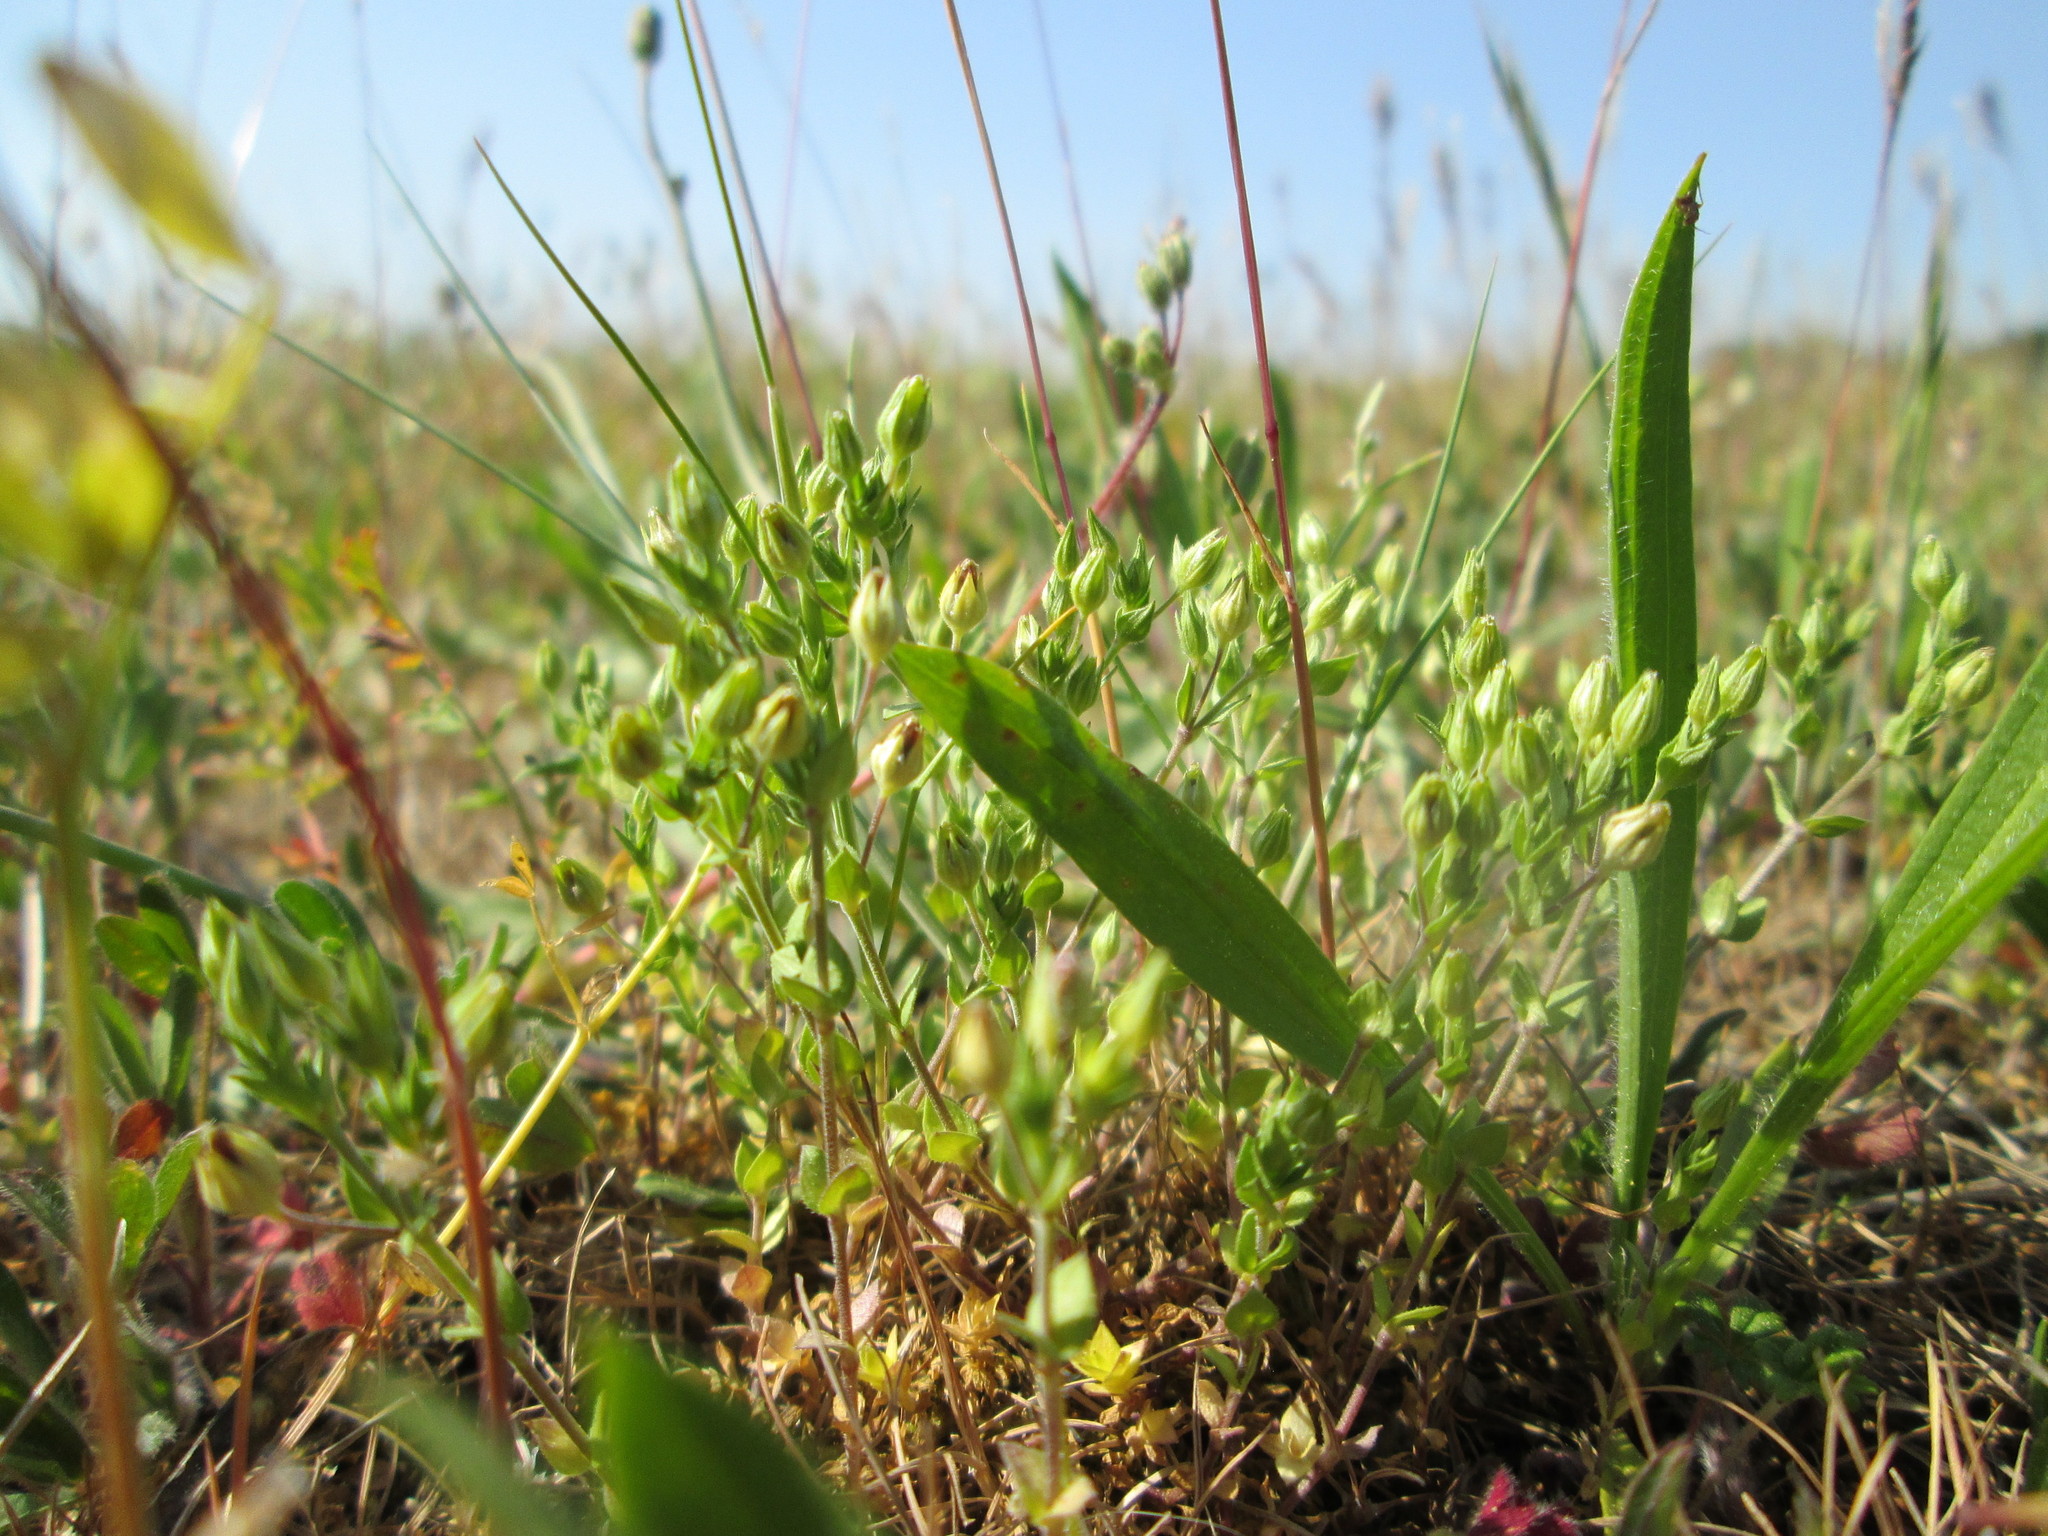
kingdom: Plantae
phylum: Tracheophyta
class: Magnoliopsida
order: Caryophyllales
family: Caryophyllaceae
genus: Arenaria
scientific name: Arenaria serpyllifolia
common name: Thyme-leaved sandwort
